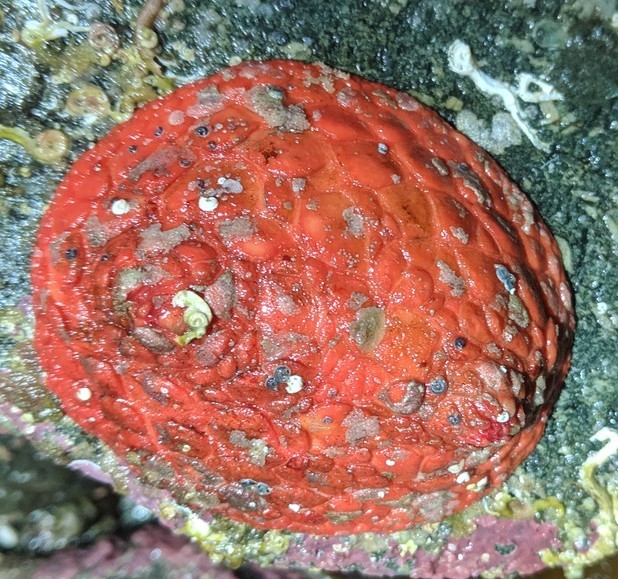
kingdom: Animalia
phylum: Echinodermata
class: Holothuroidea
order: Dendrochirotida
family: Psolidae
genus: Psolus
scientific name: Psolus chitonoides
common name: Creeping pedal sea cucumber
